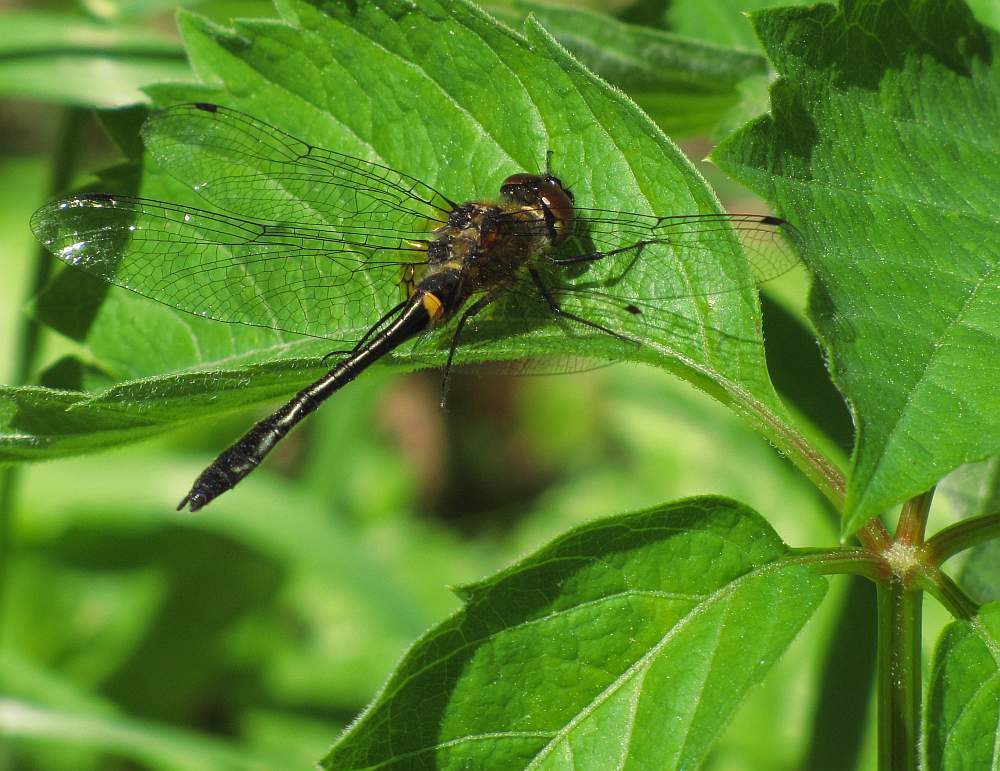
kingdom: Animalia
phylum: Arthropoda
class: Insecta
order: Odonata
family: Corduliidae
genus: Dorocordulia
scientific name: Dorocordulia libera
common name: Racket-tailed emerald
